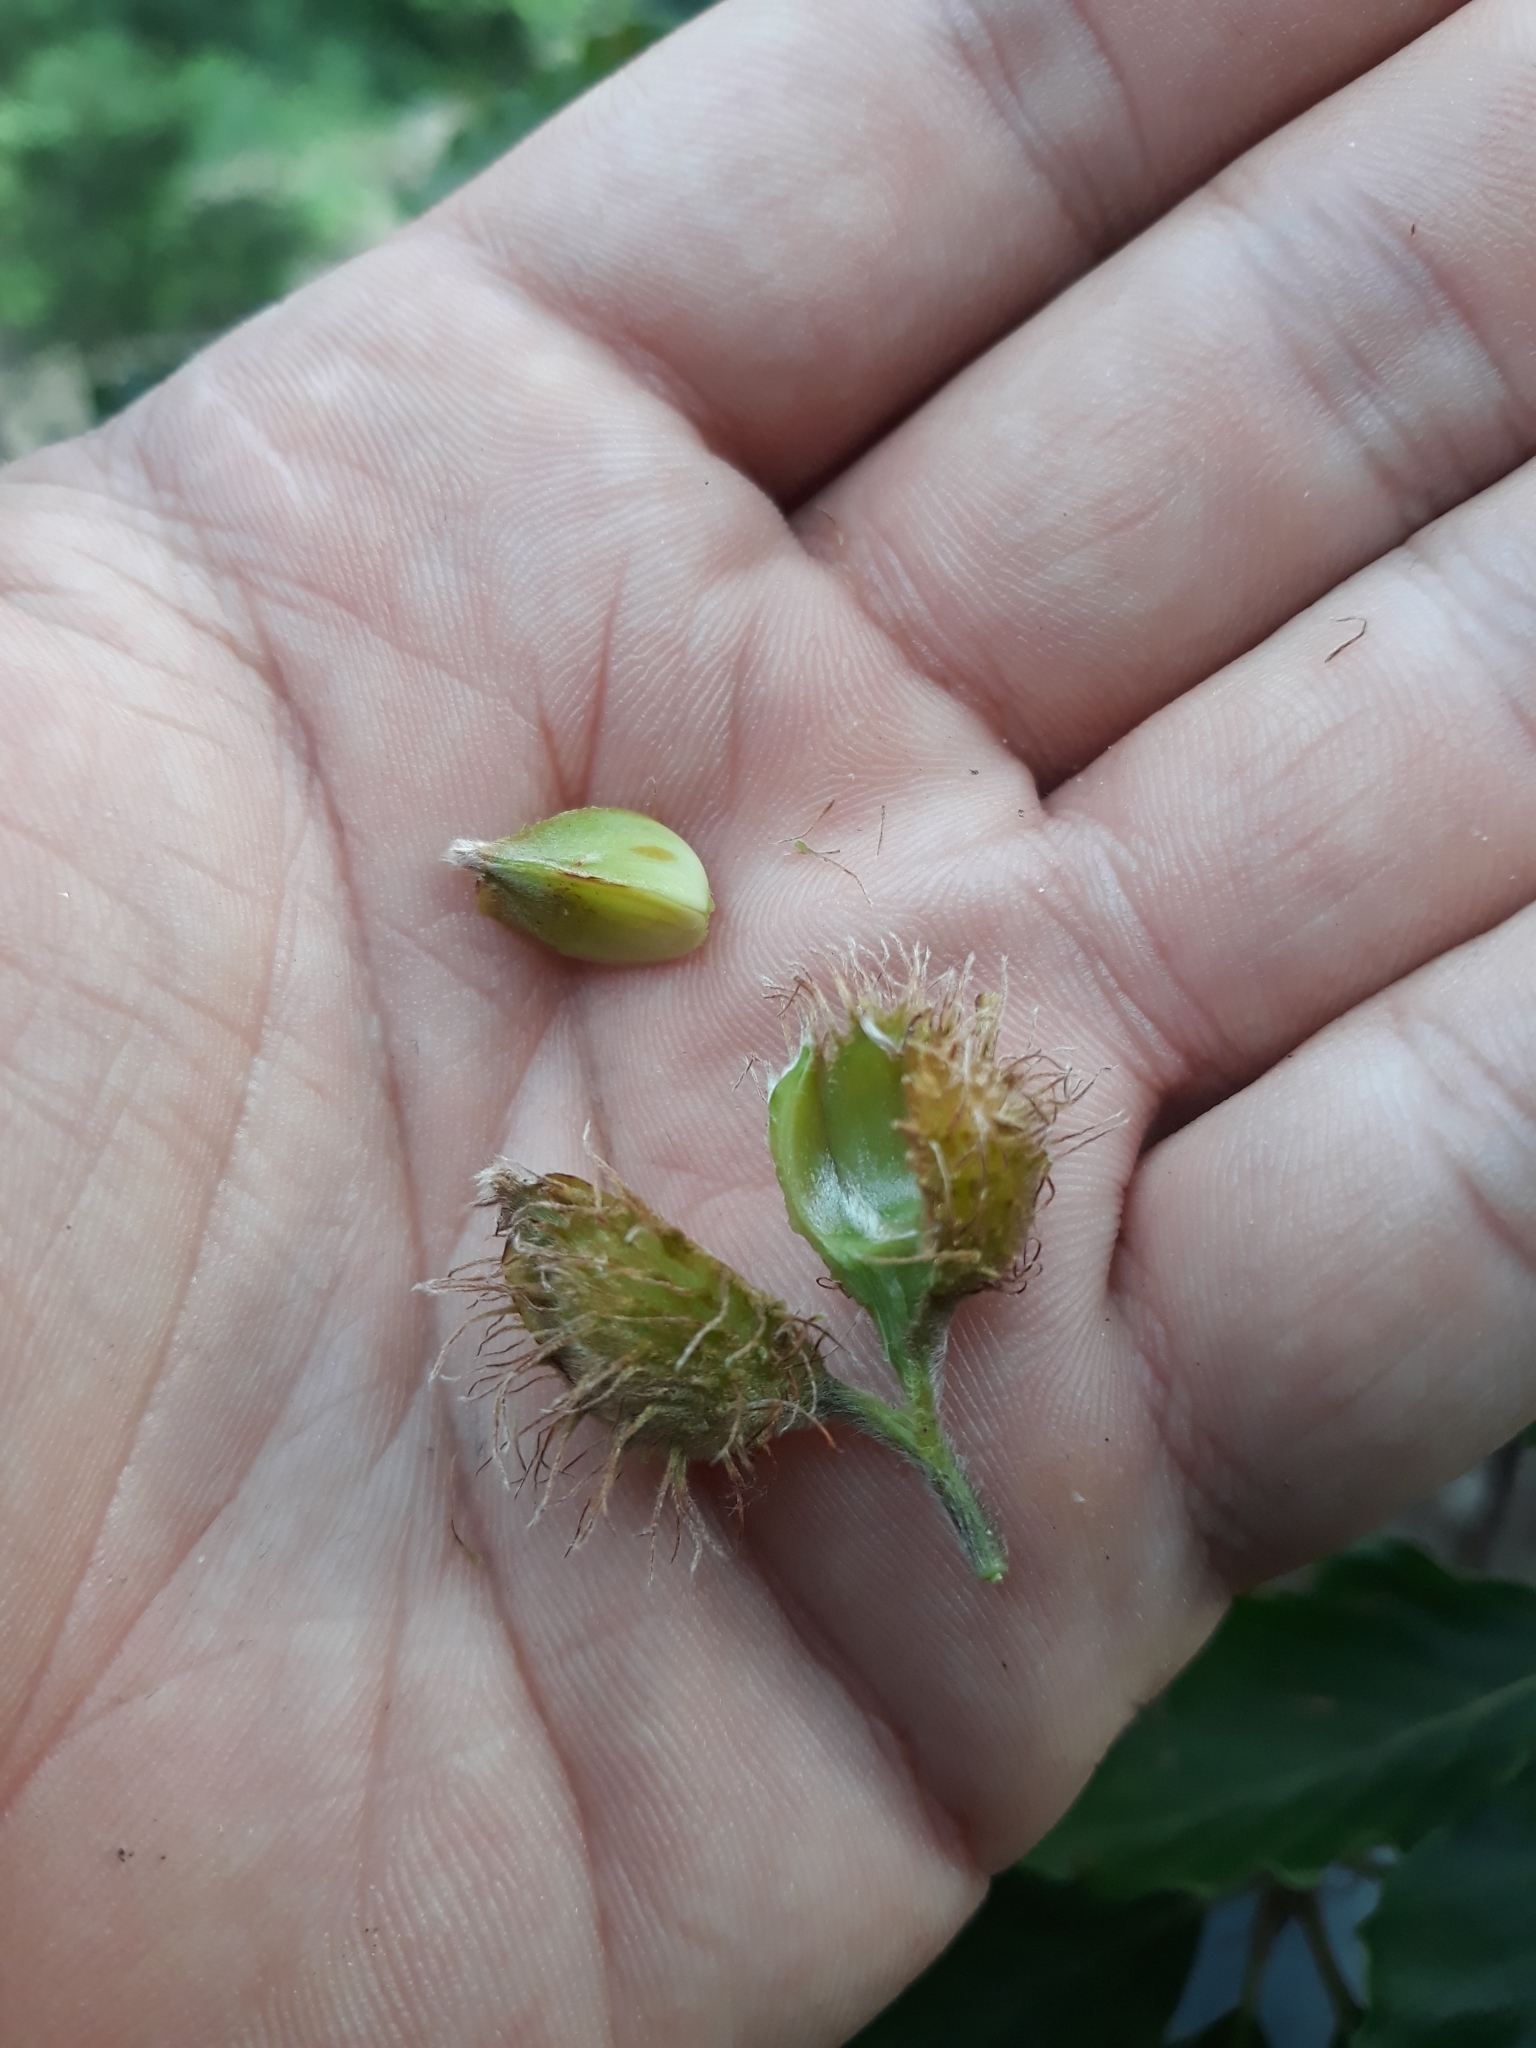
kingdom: Plantae
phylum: Tracheophyta
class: Magnoliopsida
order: Fagales
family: Fagaceae
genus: Fagus
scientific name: Fagus sylvatica
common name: Beech
